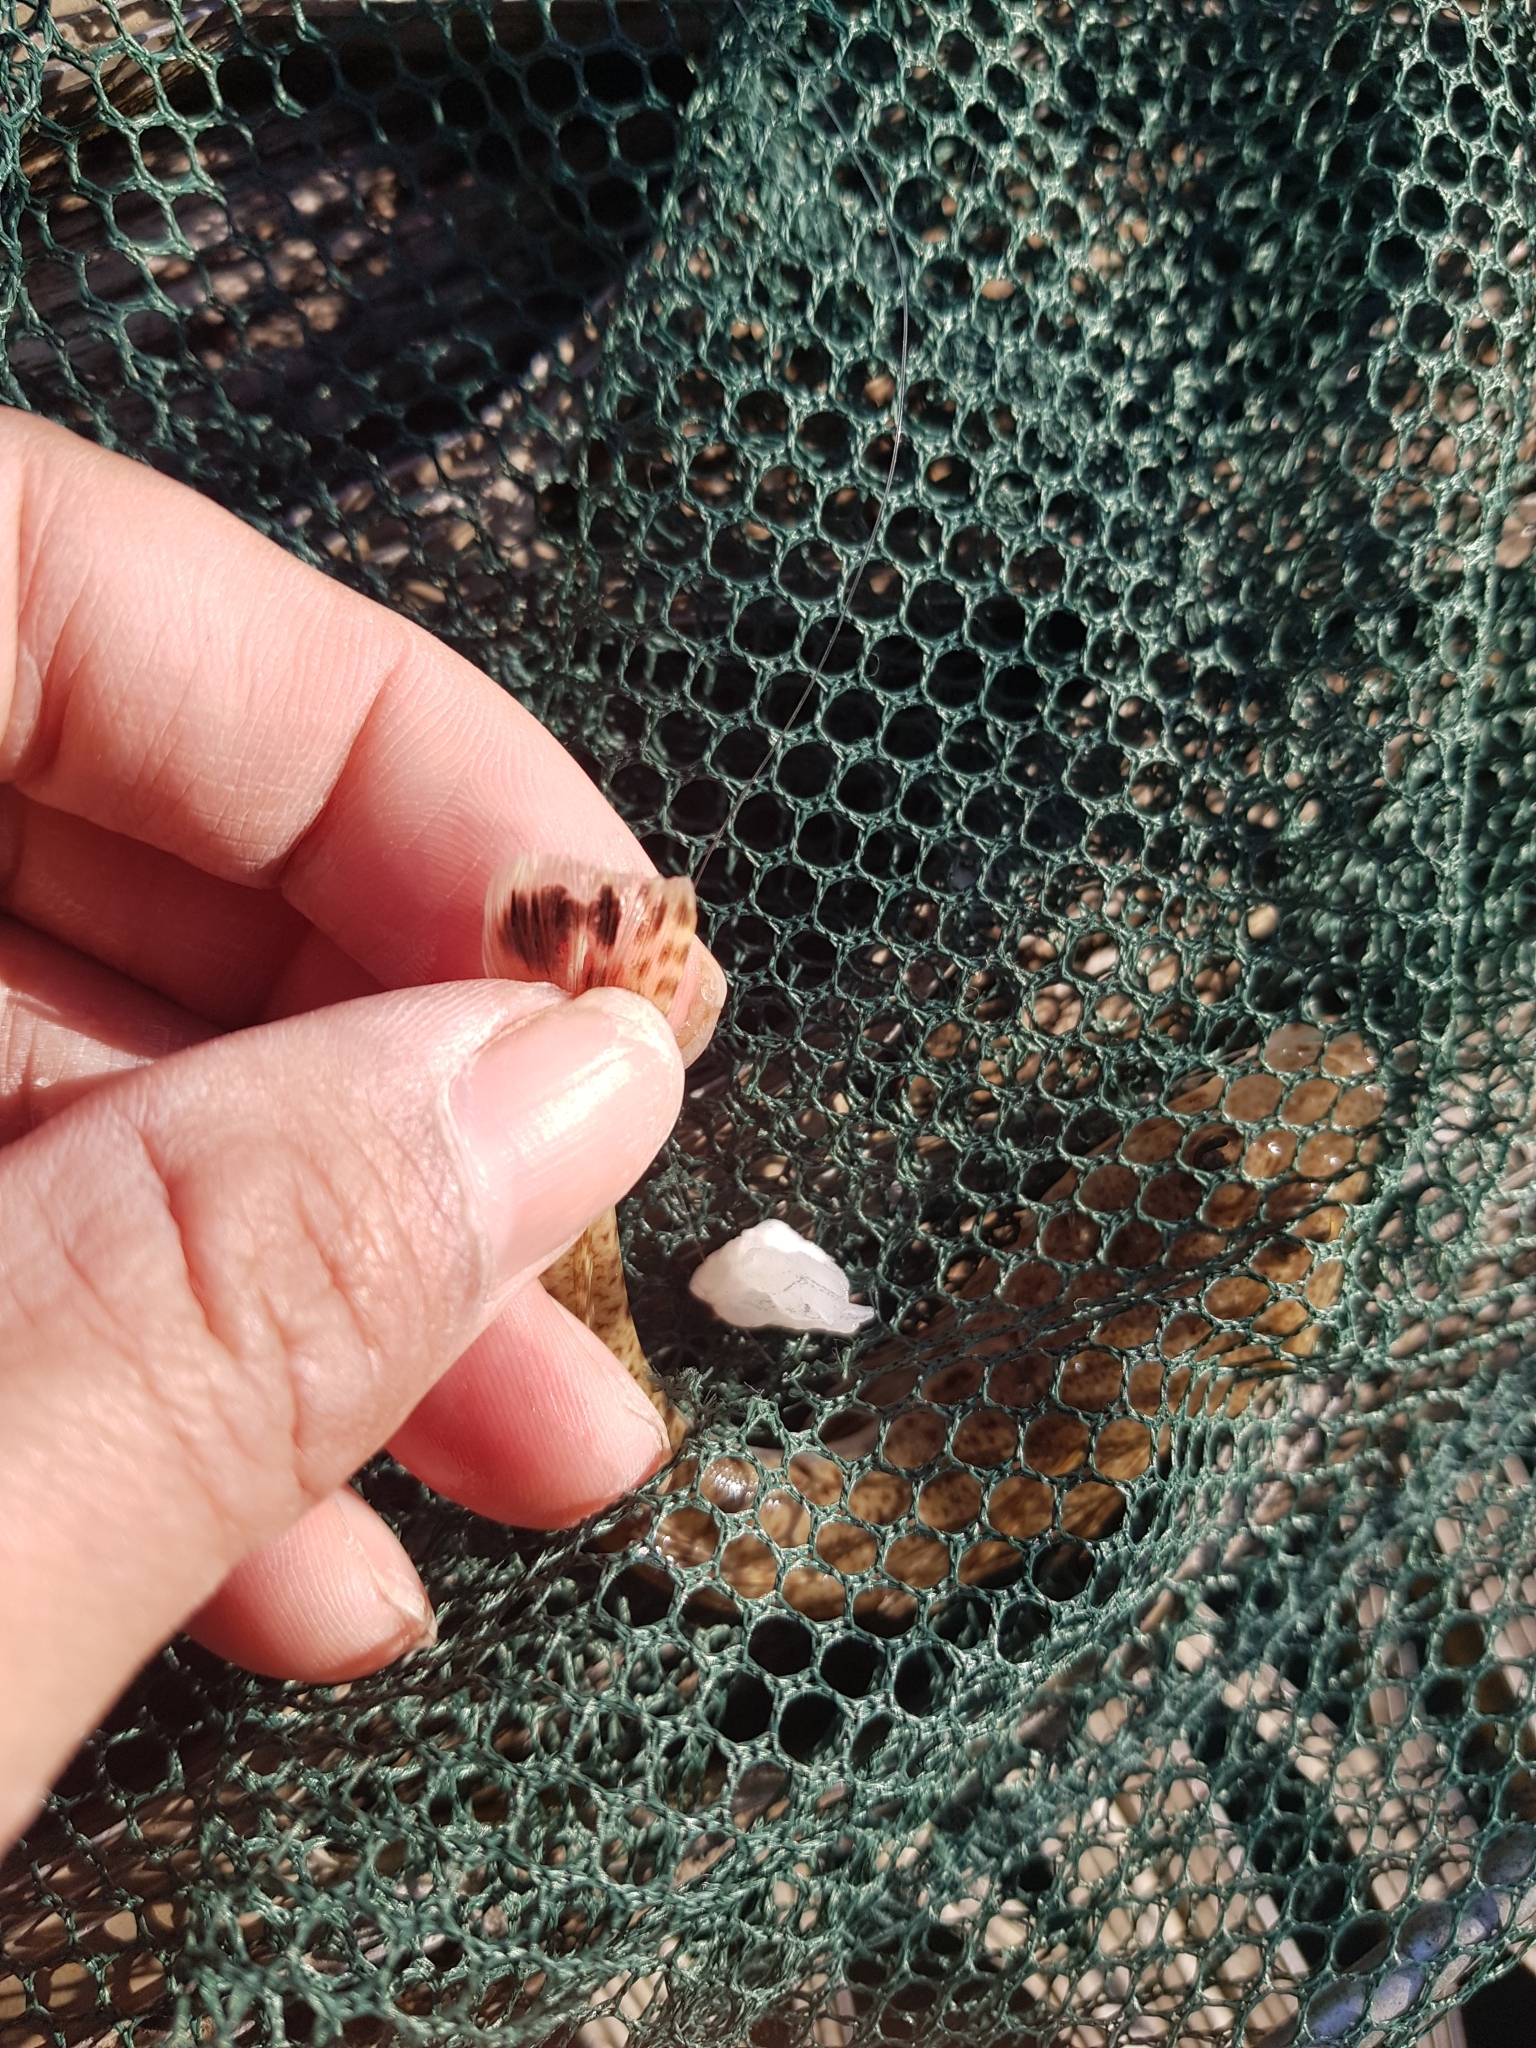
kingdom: Animalia
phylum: Chordata
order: Scorpaeniformes
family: Platycephalidae
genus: Platycephalus
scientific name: Platycephalus bassensis
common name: Sand flathead
